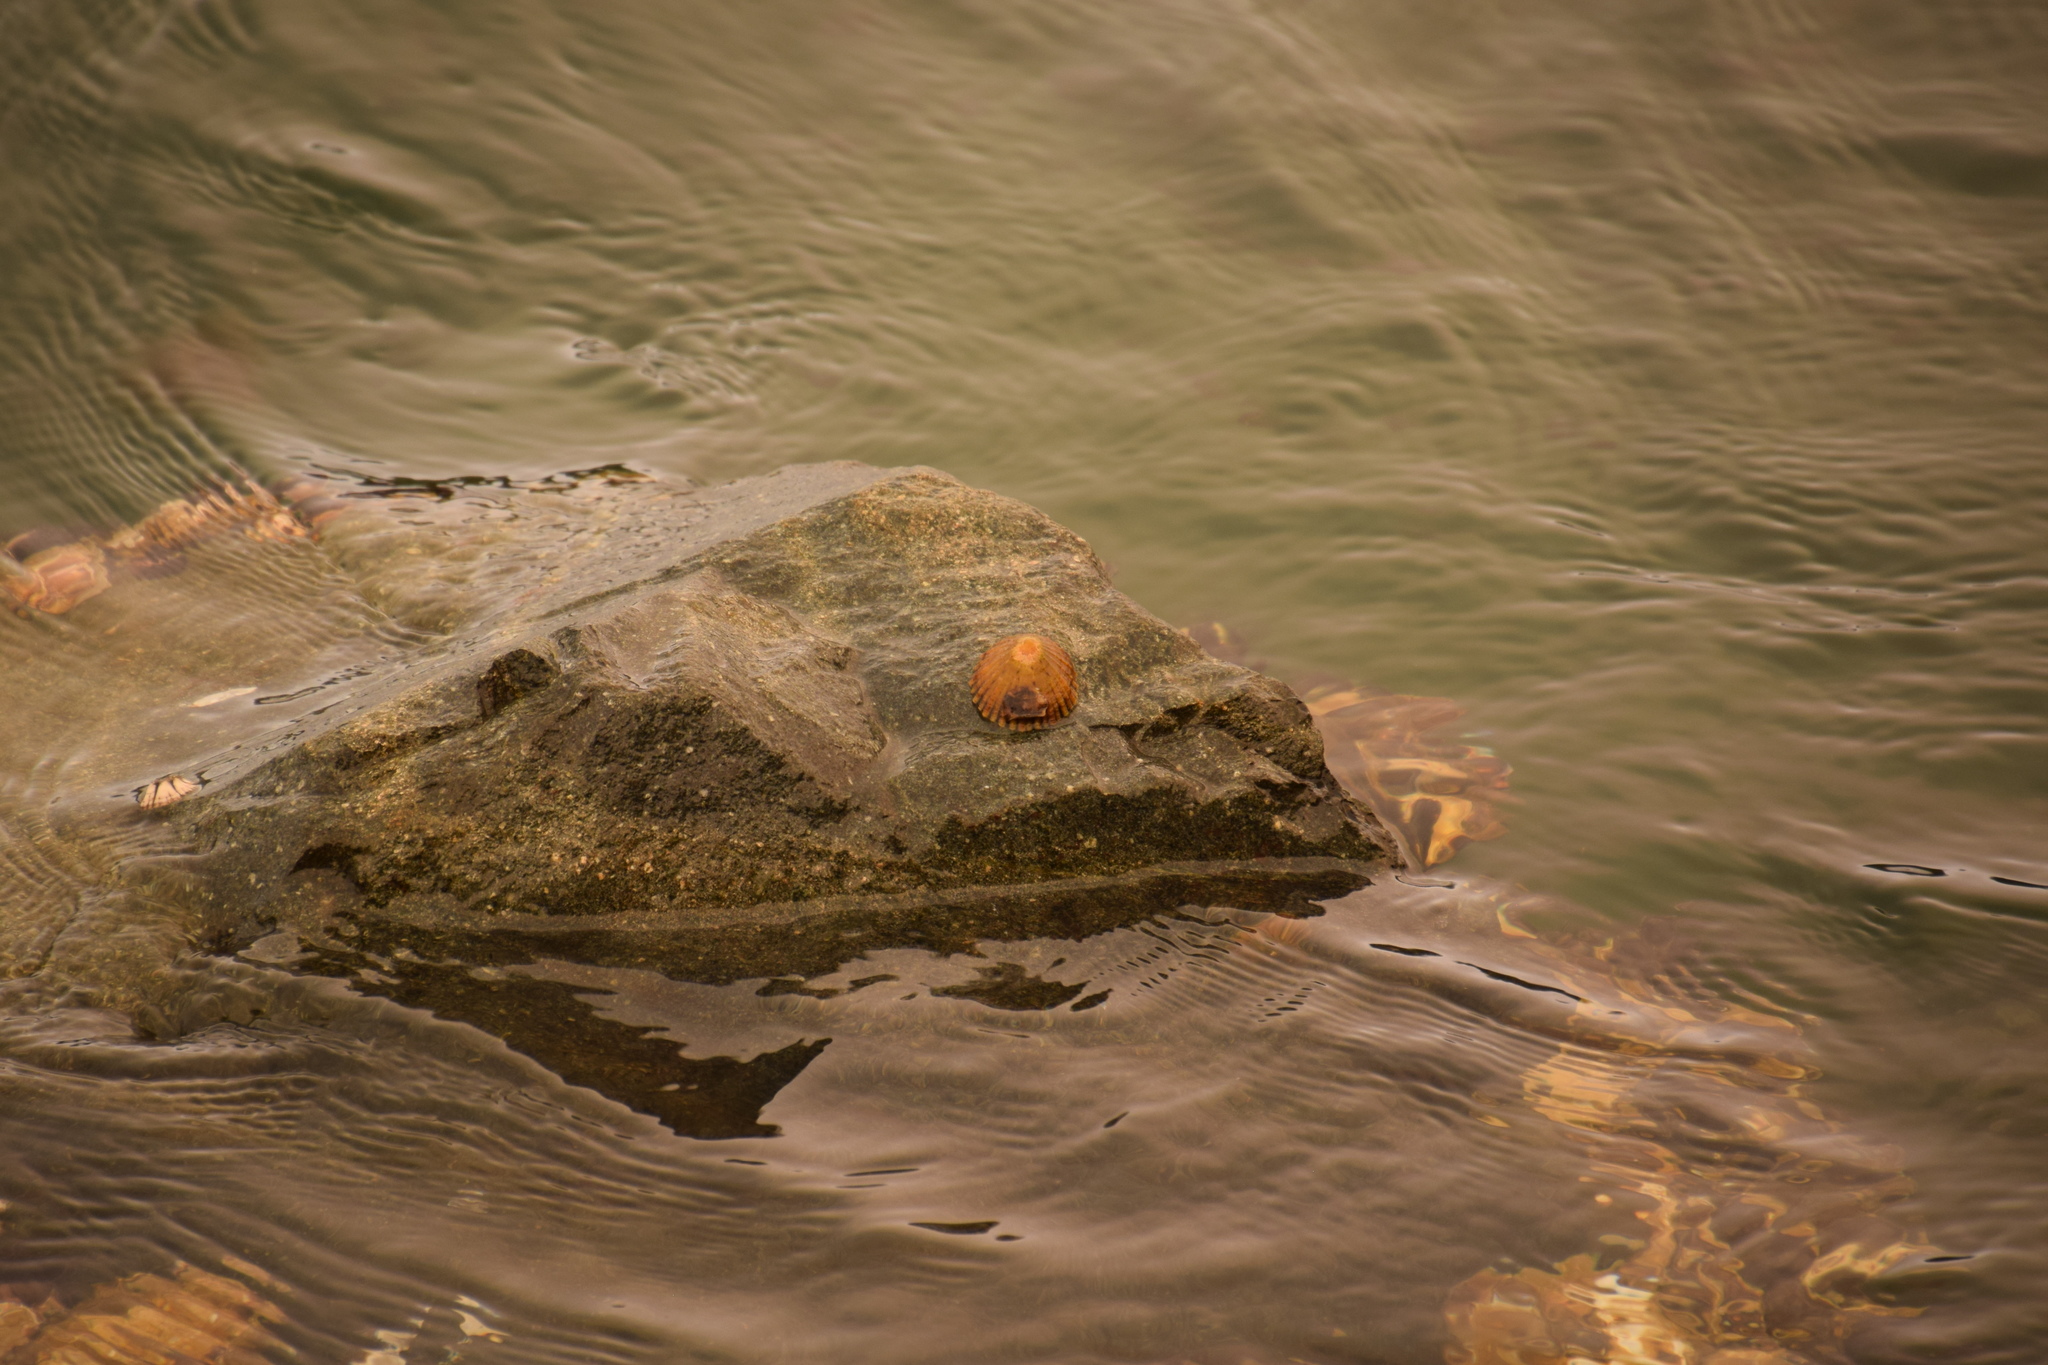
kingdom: Animalia
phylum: Mollusca
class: Gastropoda
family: Nacellidae
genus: Cellana
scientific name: Cellana tramoserica
